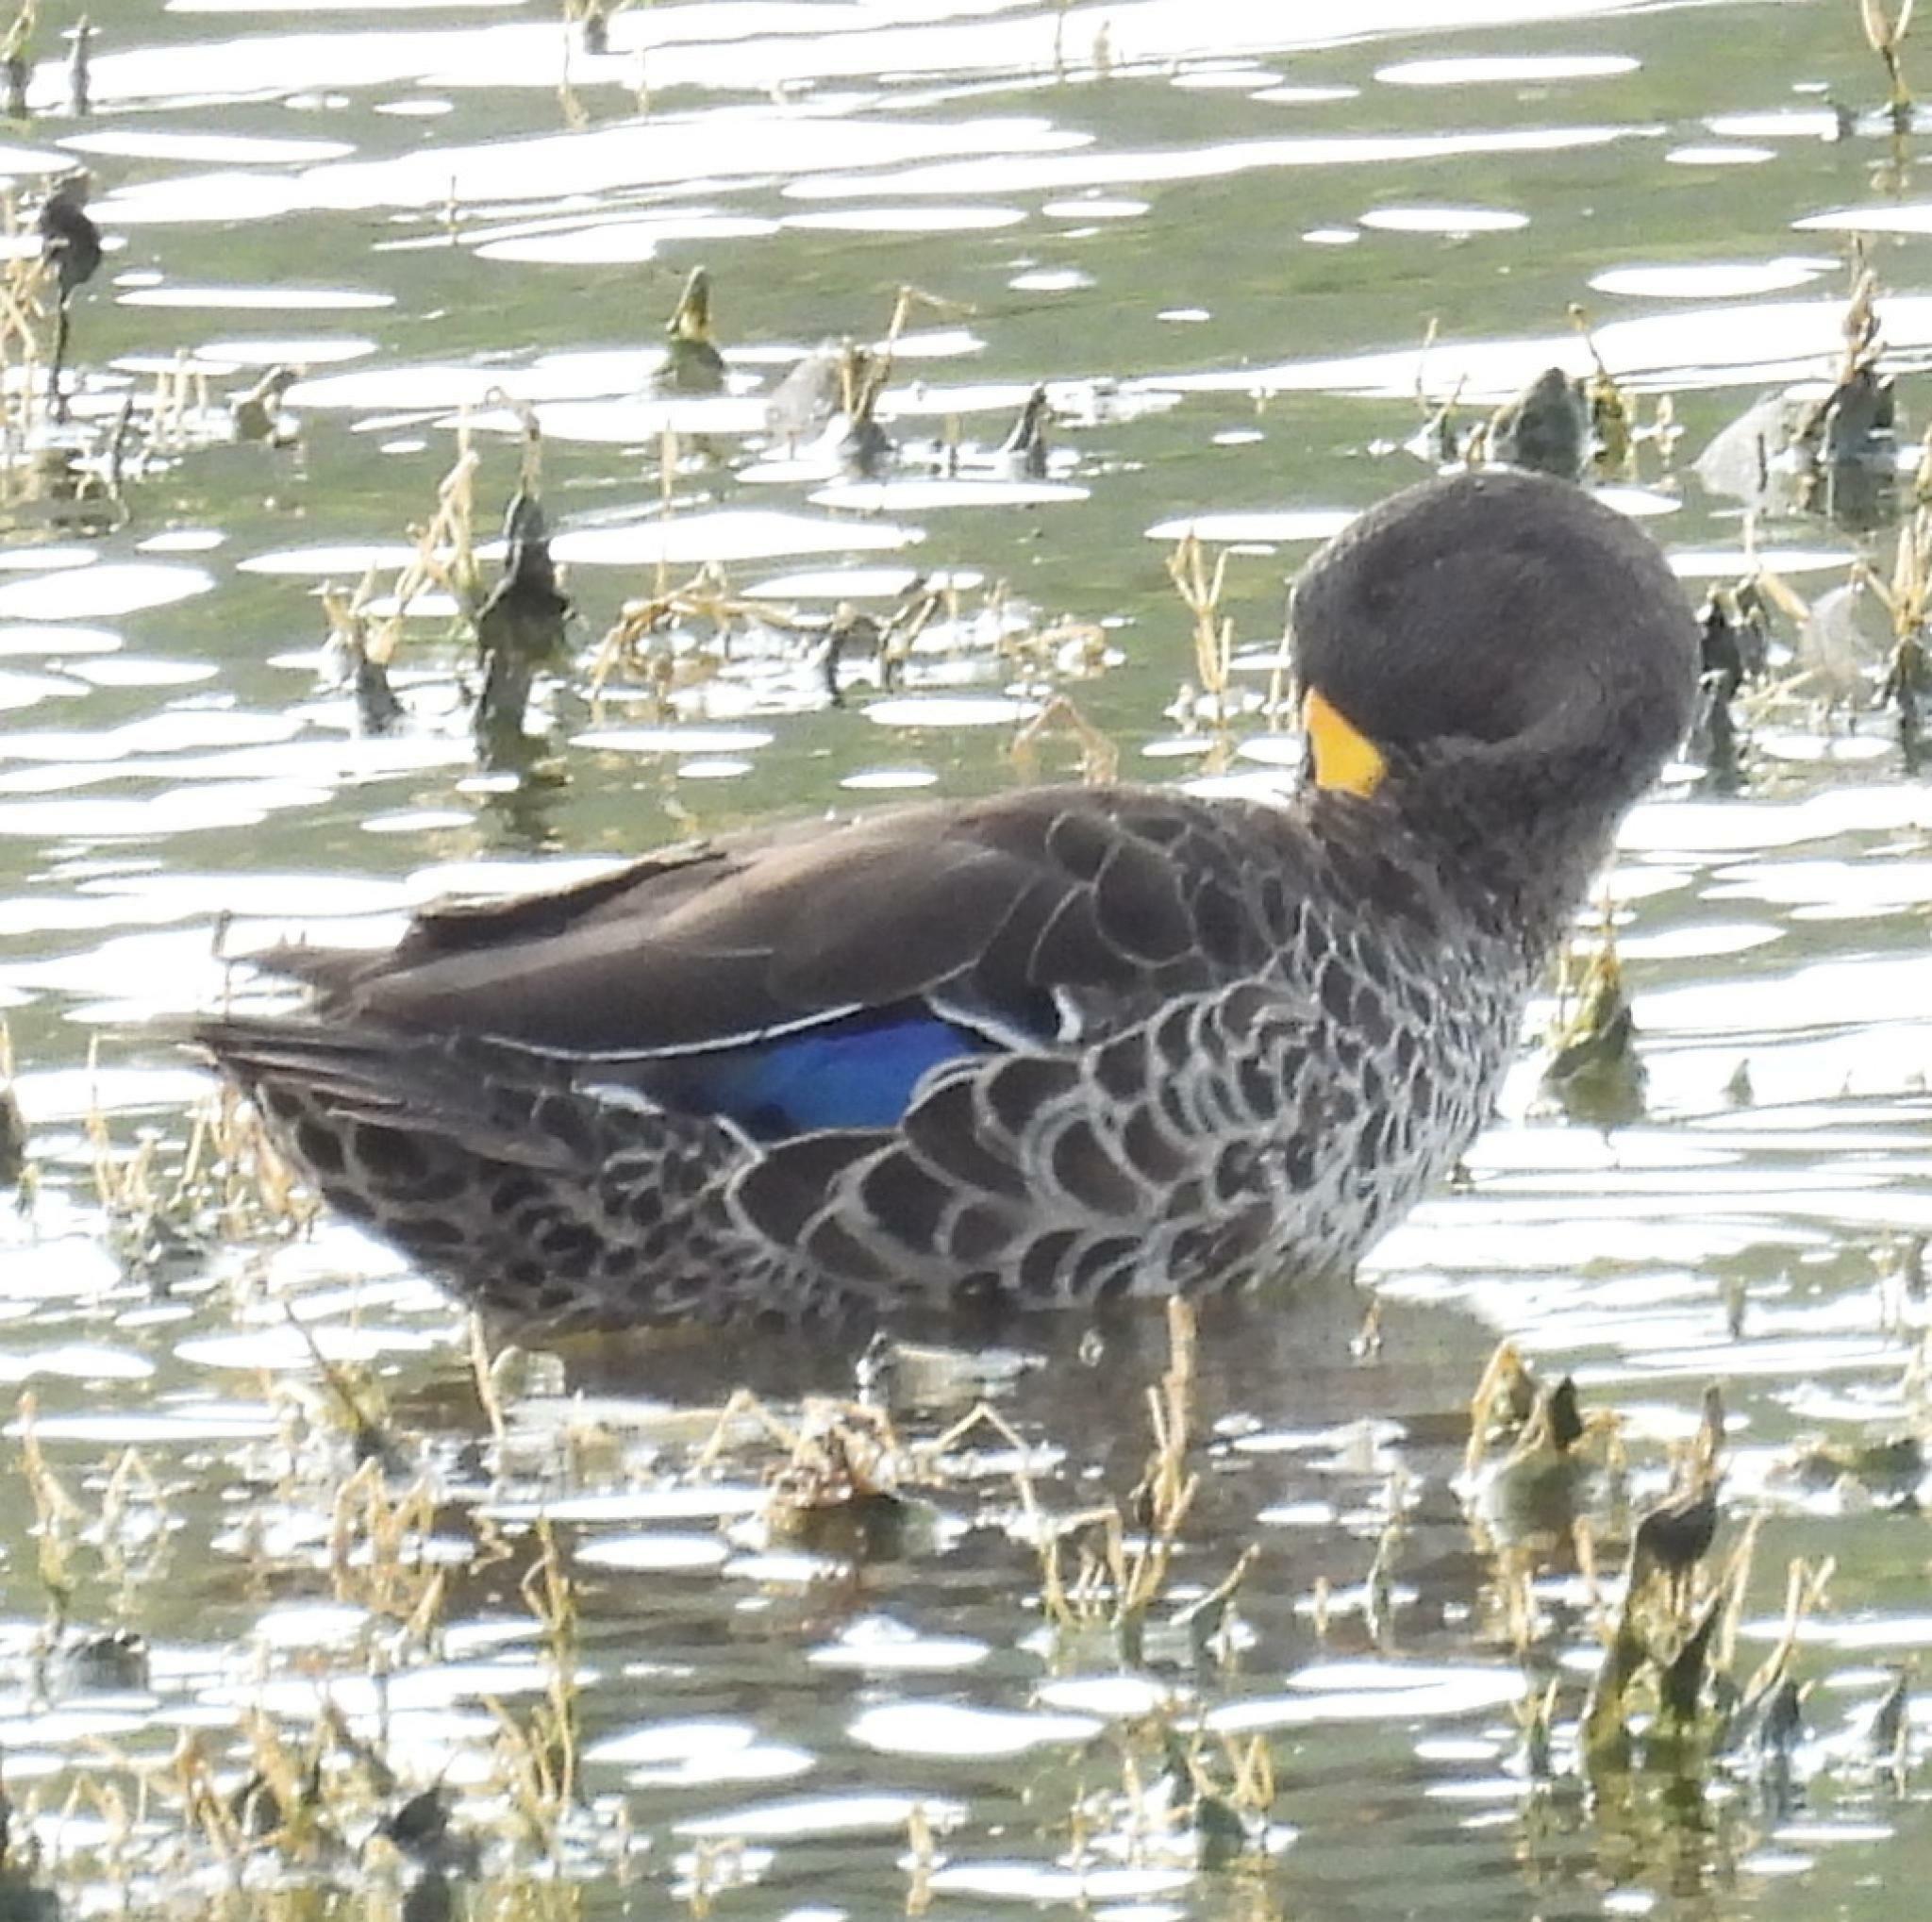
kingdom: Animalia
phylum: Chordata
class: Aves
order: Anseriformes
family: Anatidae
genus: Anas
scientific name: Anas undulata
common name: Yellow-billed duck
